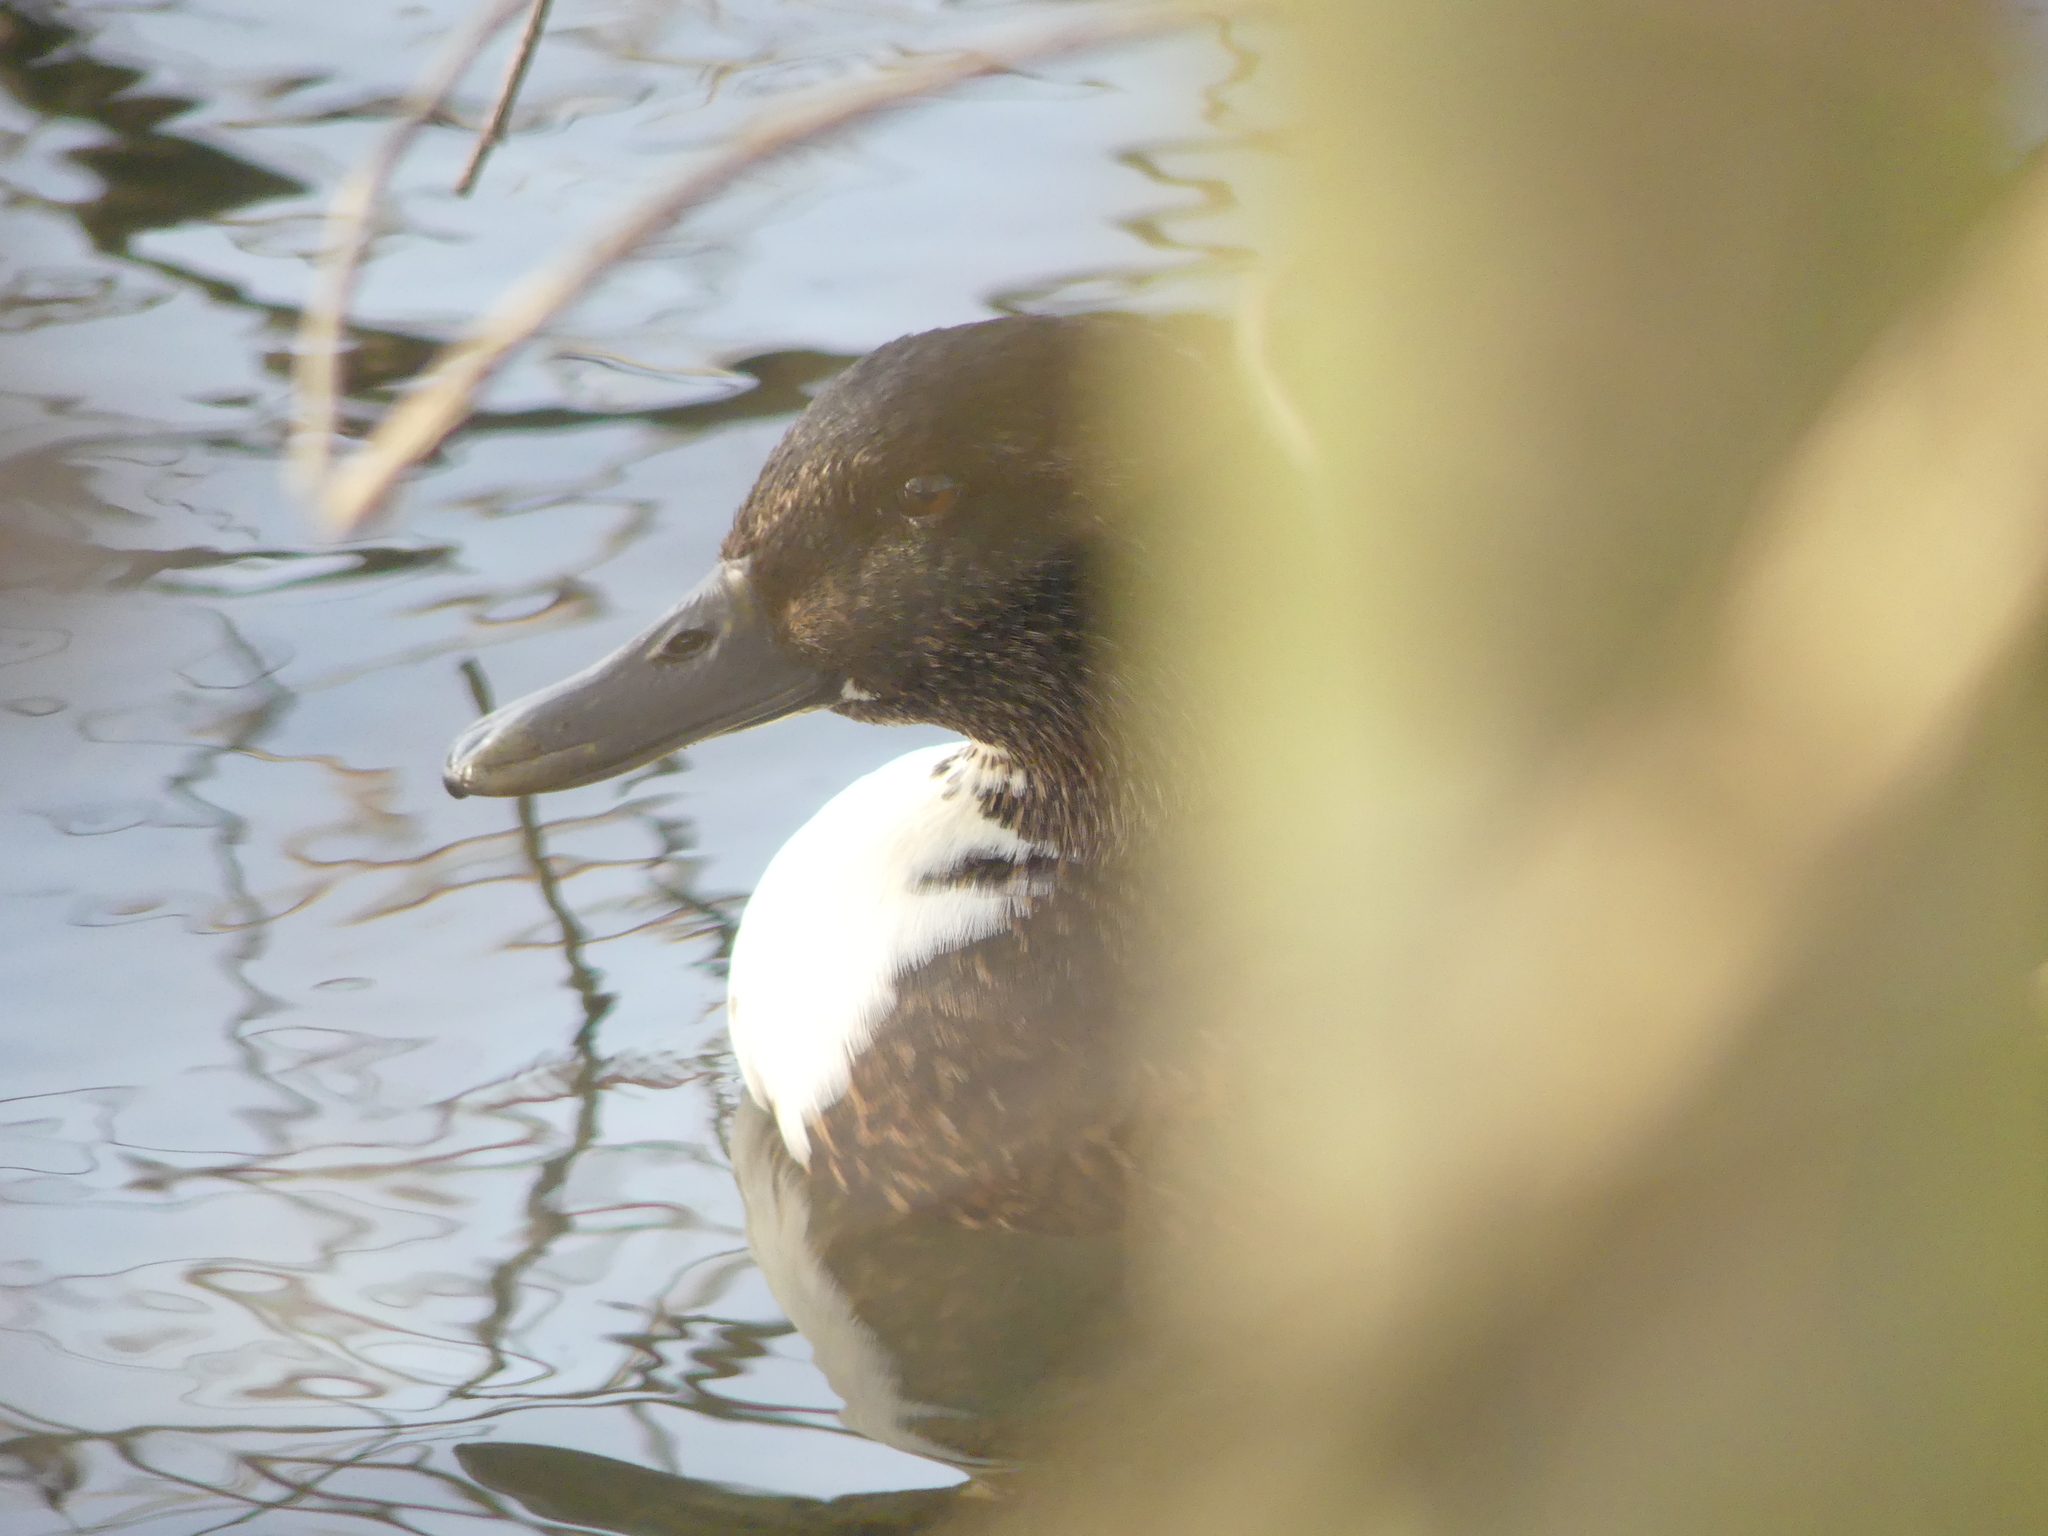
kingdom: Animalia
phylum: Chordata
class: Aves
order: Anseriformes
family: Anatidae
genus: Anas
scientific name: Anas platyrhynchos
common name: Mallard
